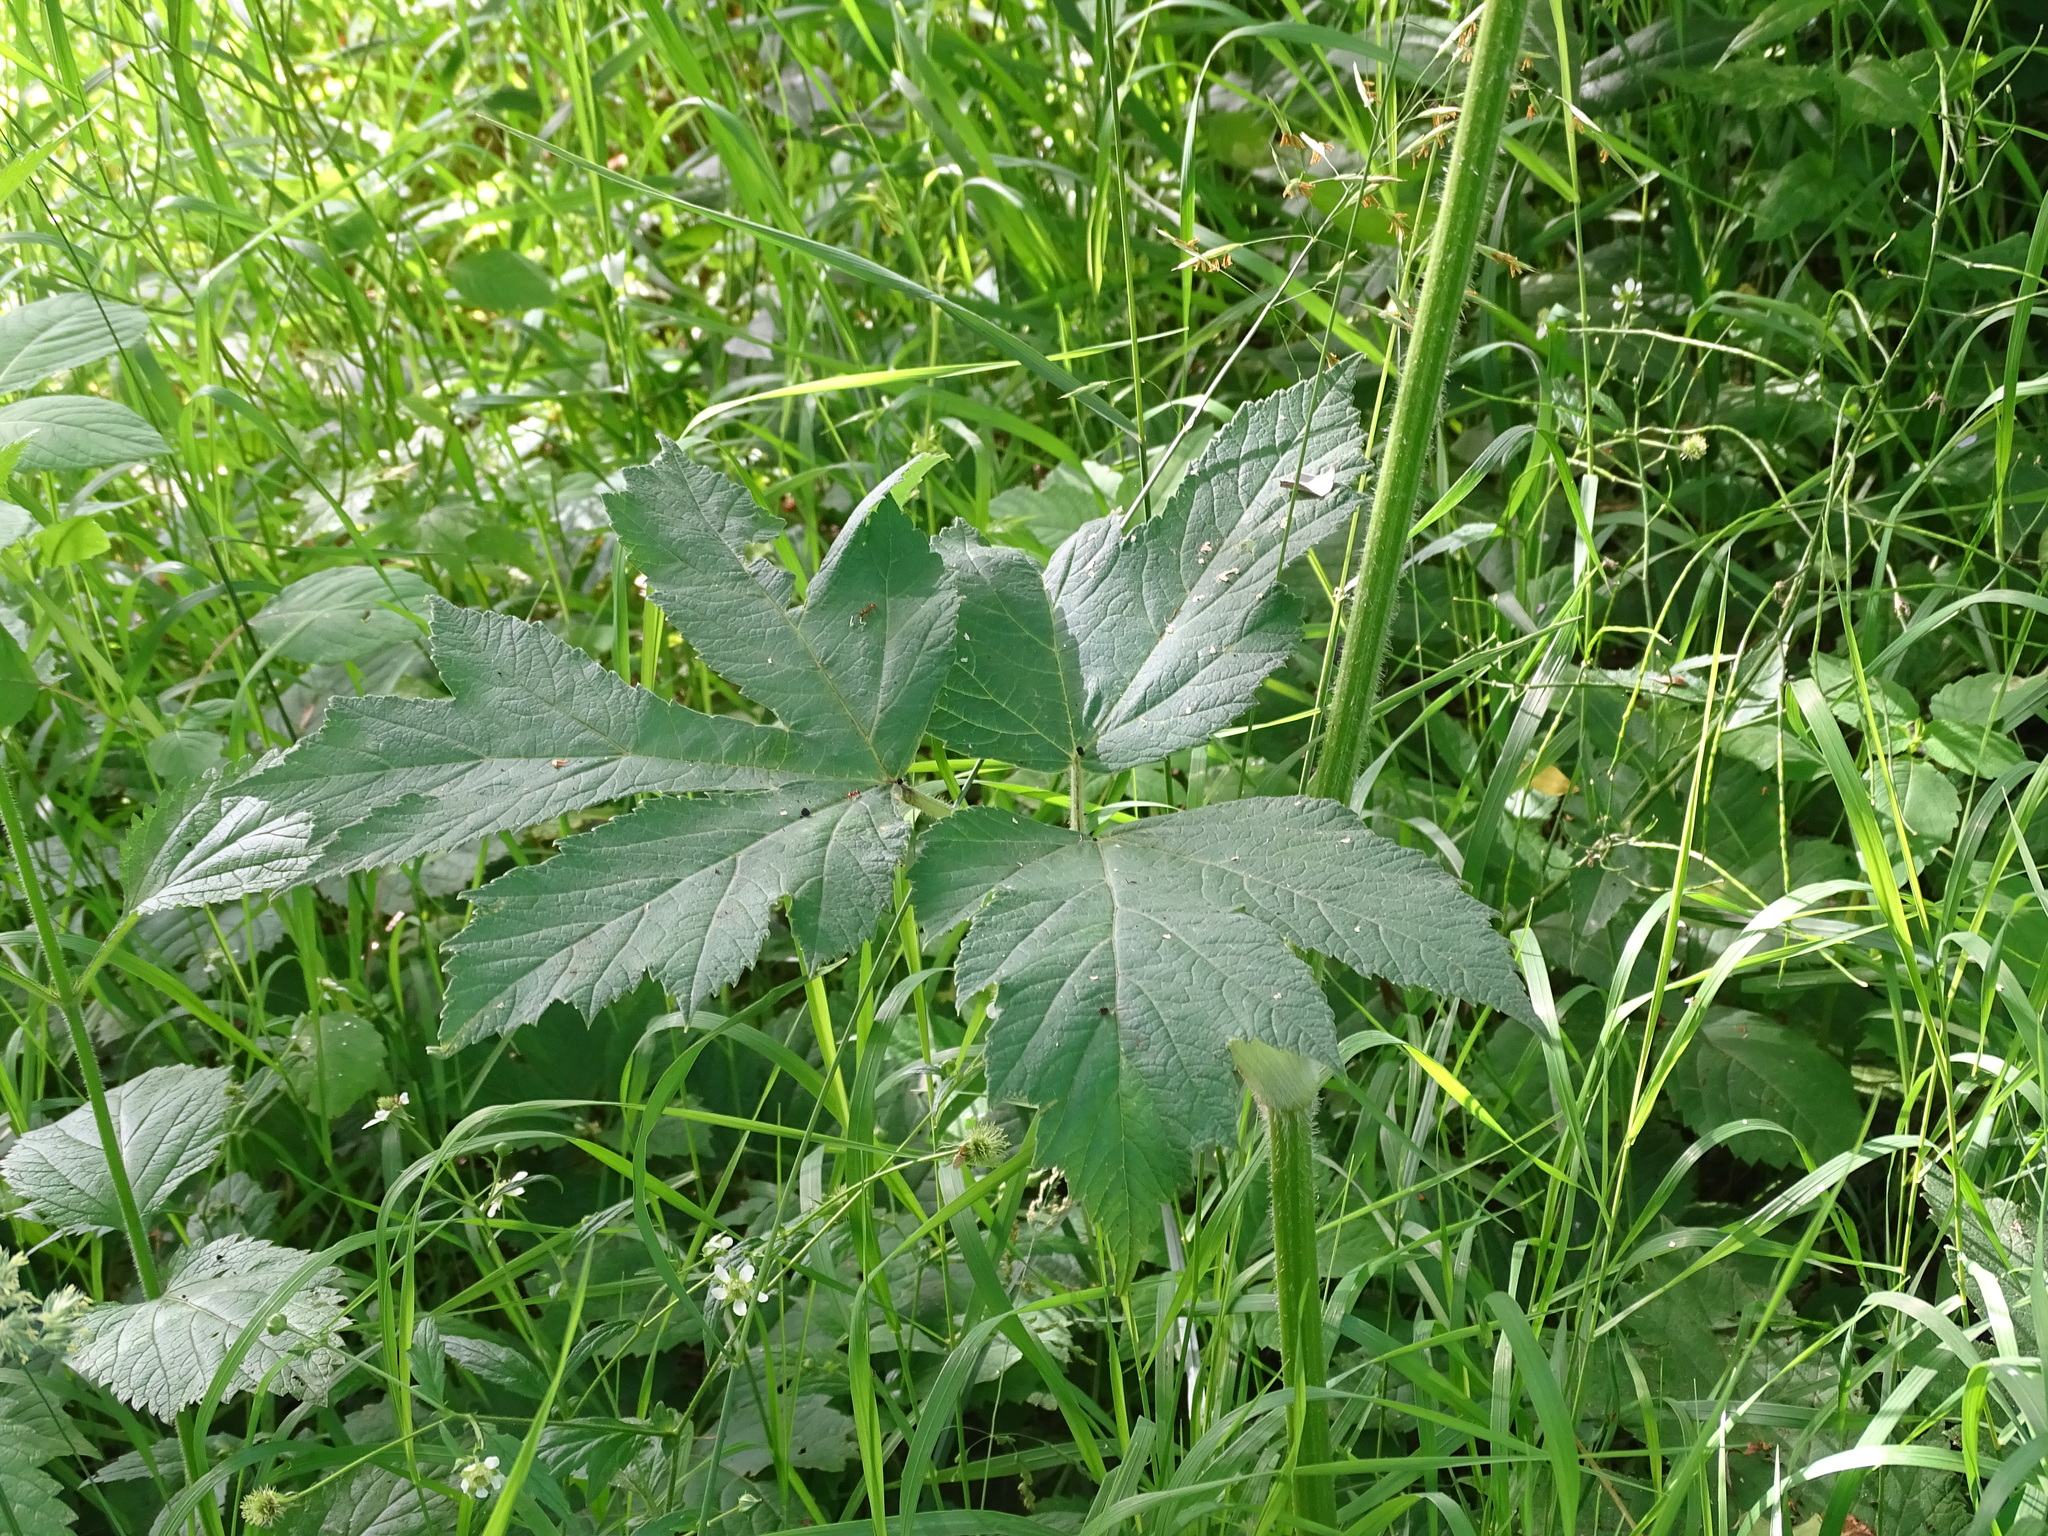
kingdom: Plantae
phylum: Tracheophyta
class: Magnoliopsida
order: Apiales
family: Apiaceae
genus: Heracleum
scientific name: Heracleum maximum
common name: American cow parsnip
